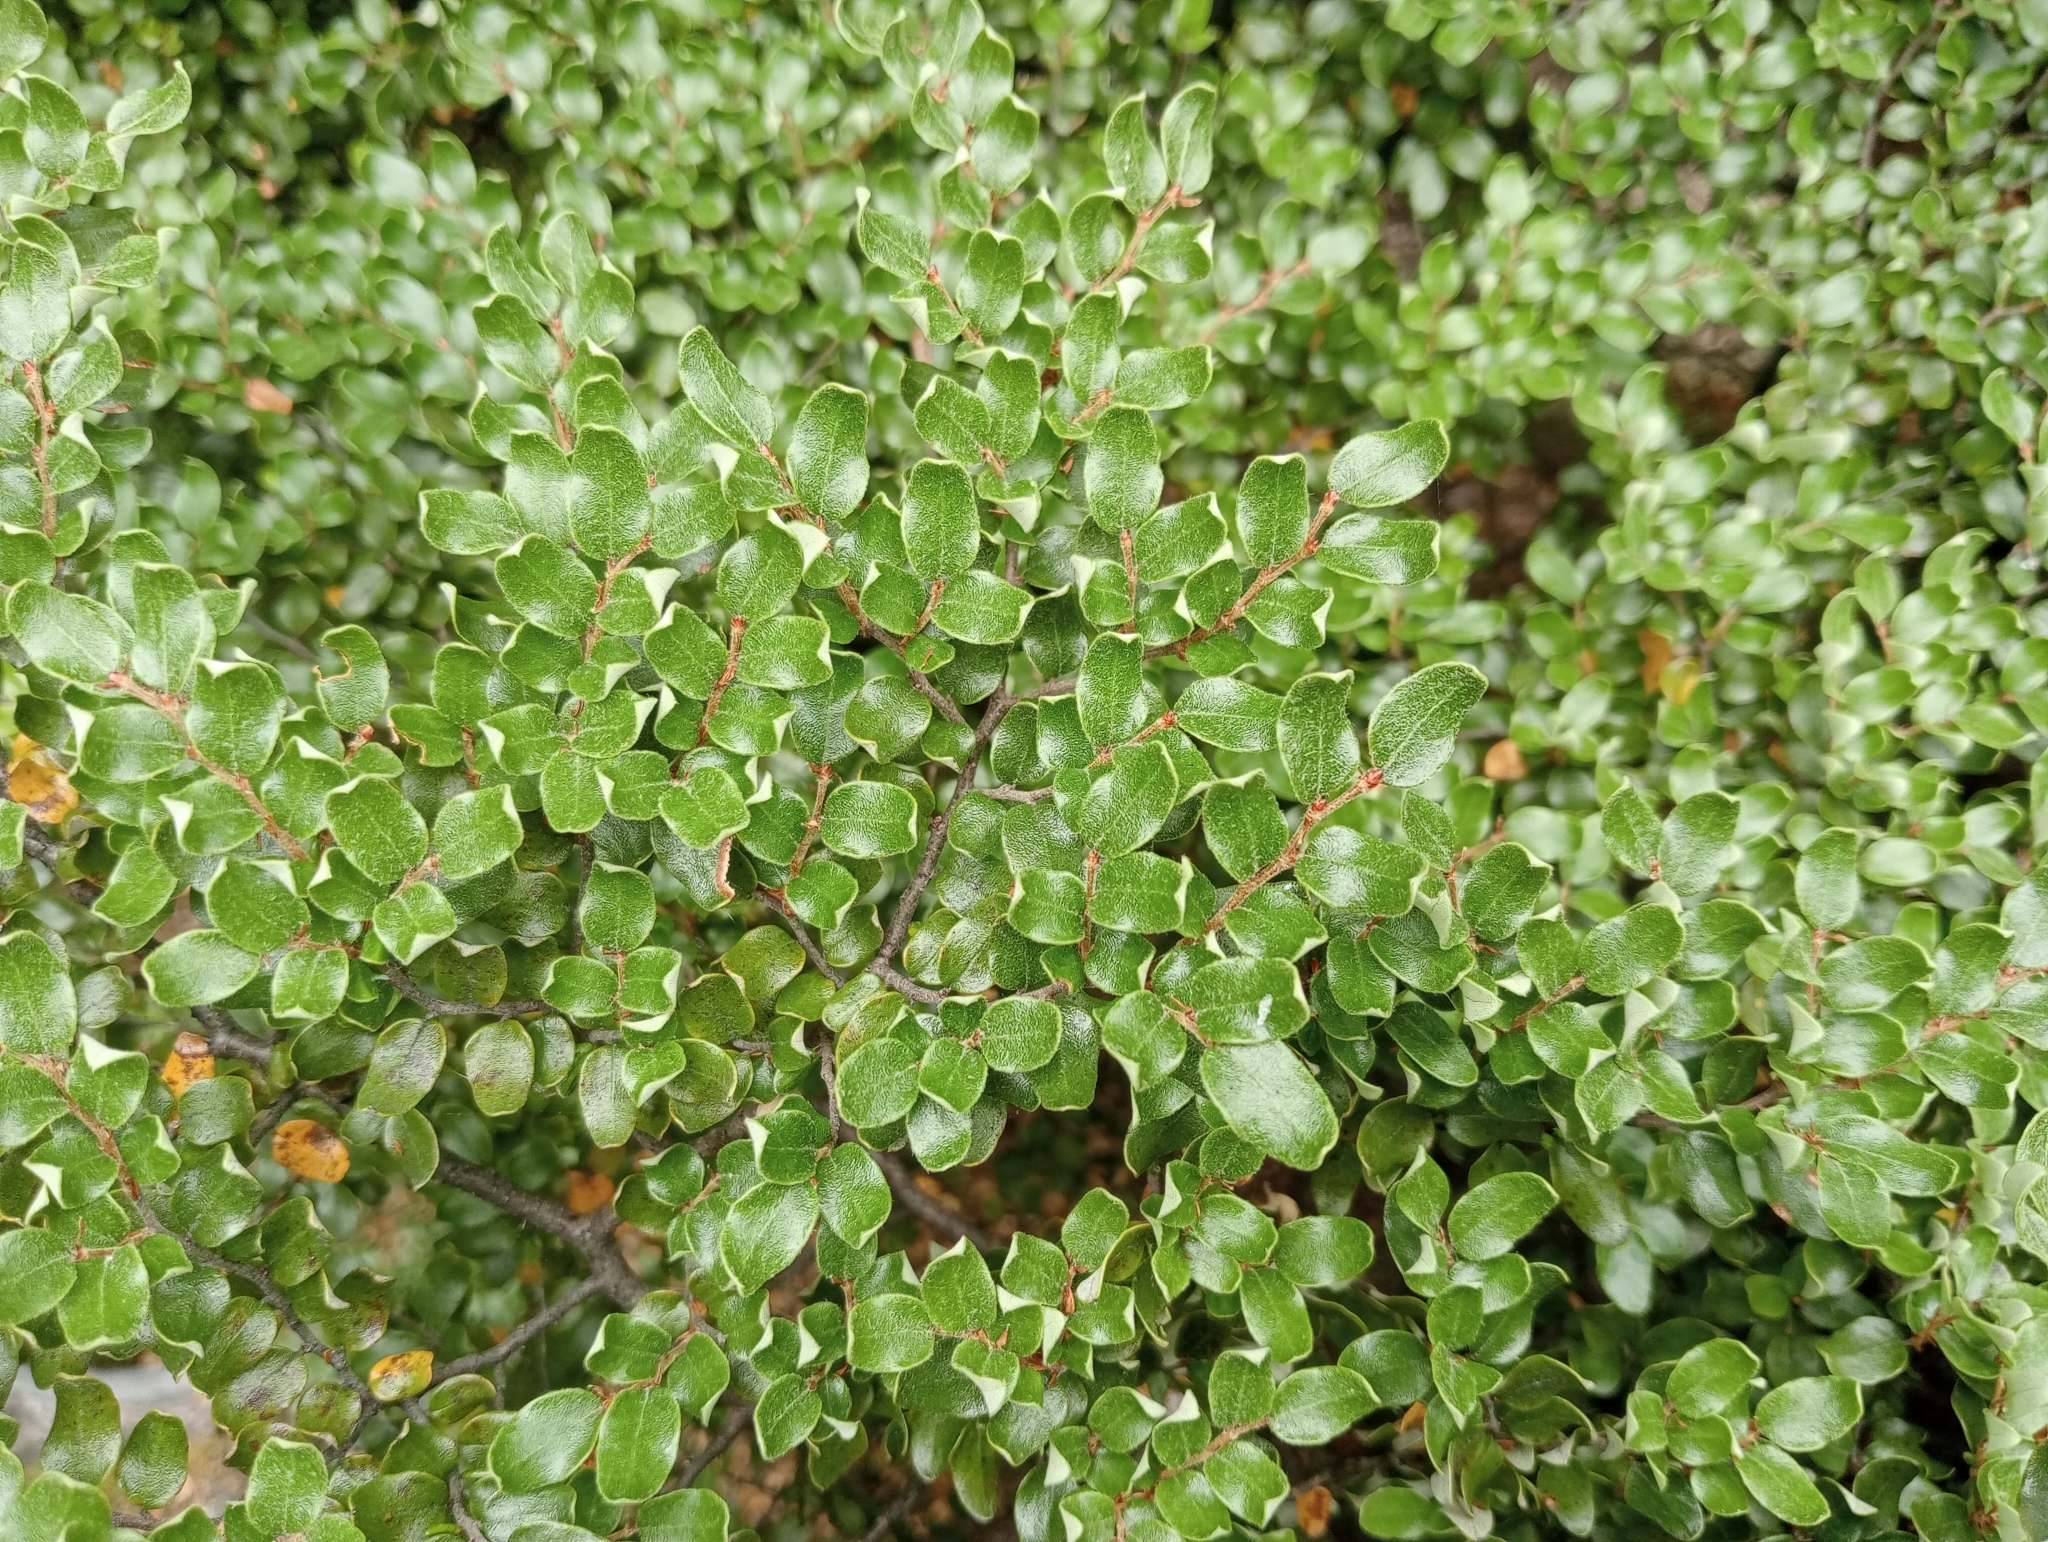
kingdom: Plantae
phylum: Tracheophyta
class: Magnoliopsida
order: Fagales
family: Nothofagaceae
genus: Nothofagus
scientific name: Nothofagus cliffortioides
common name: Mountain beech
